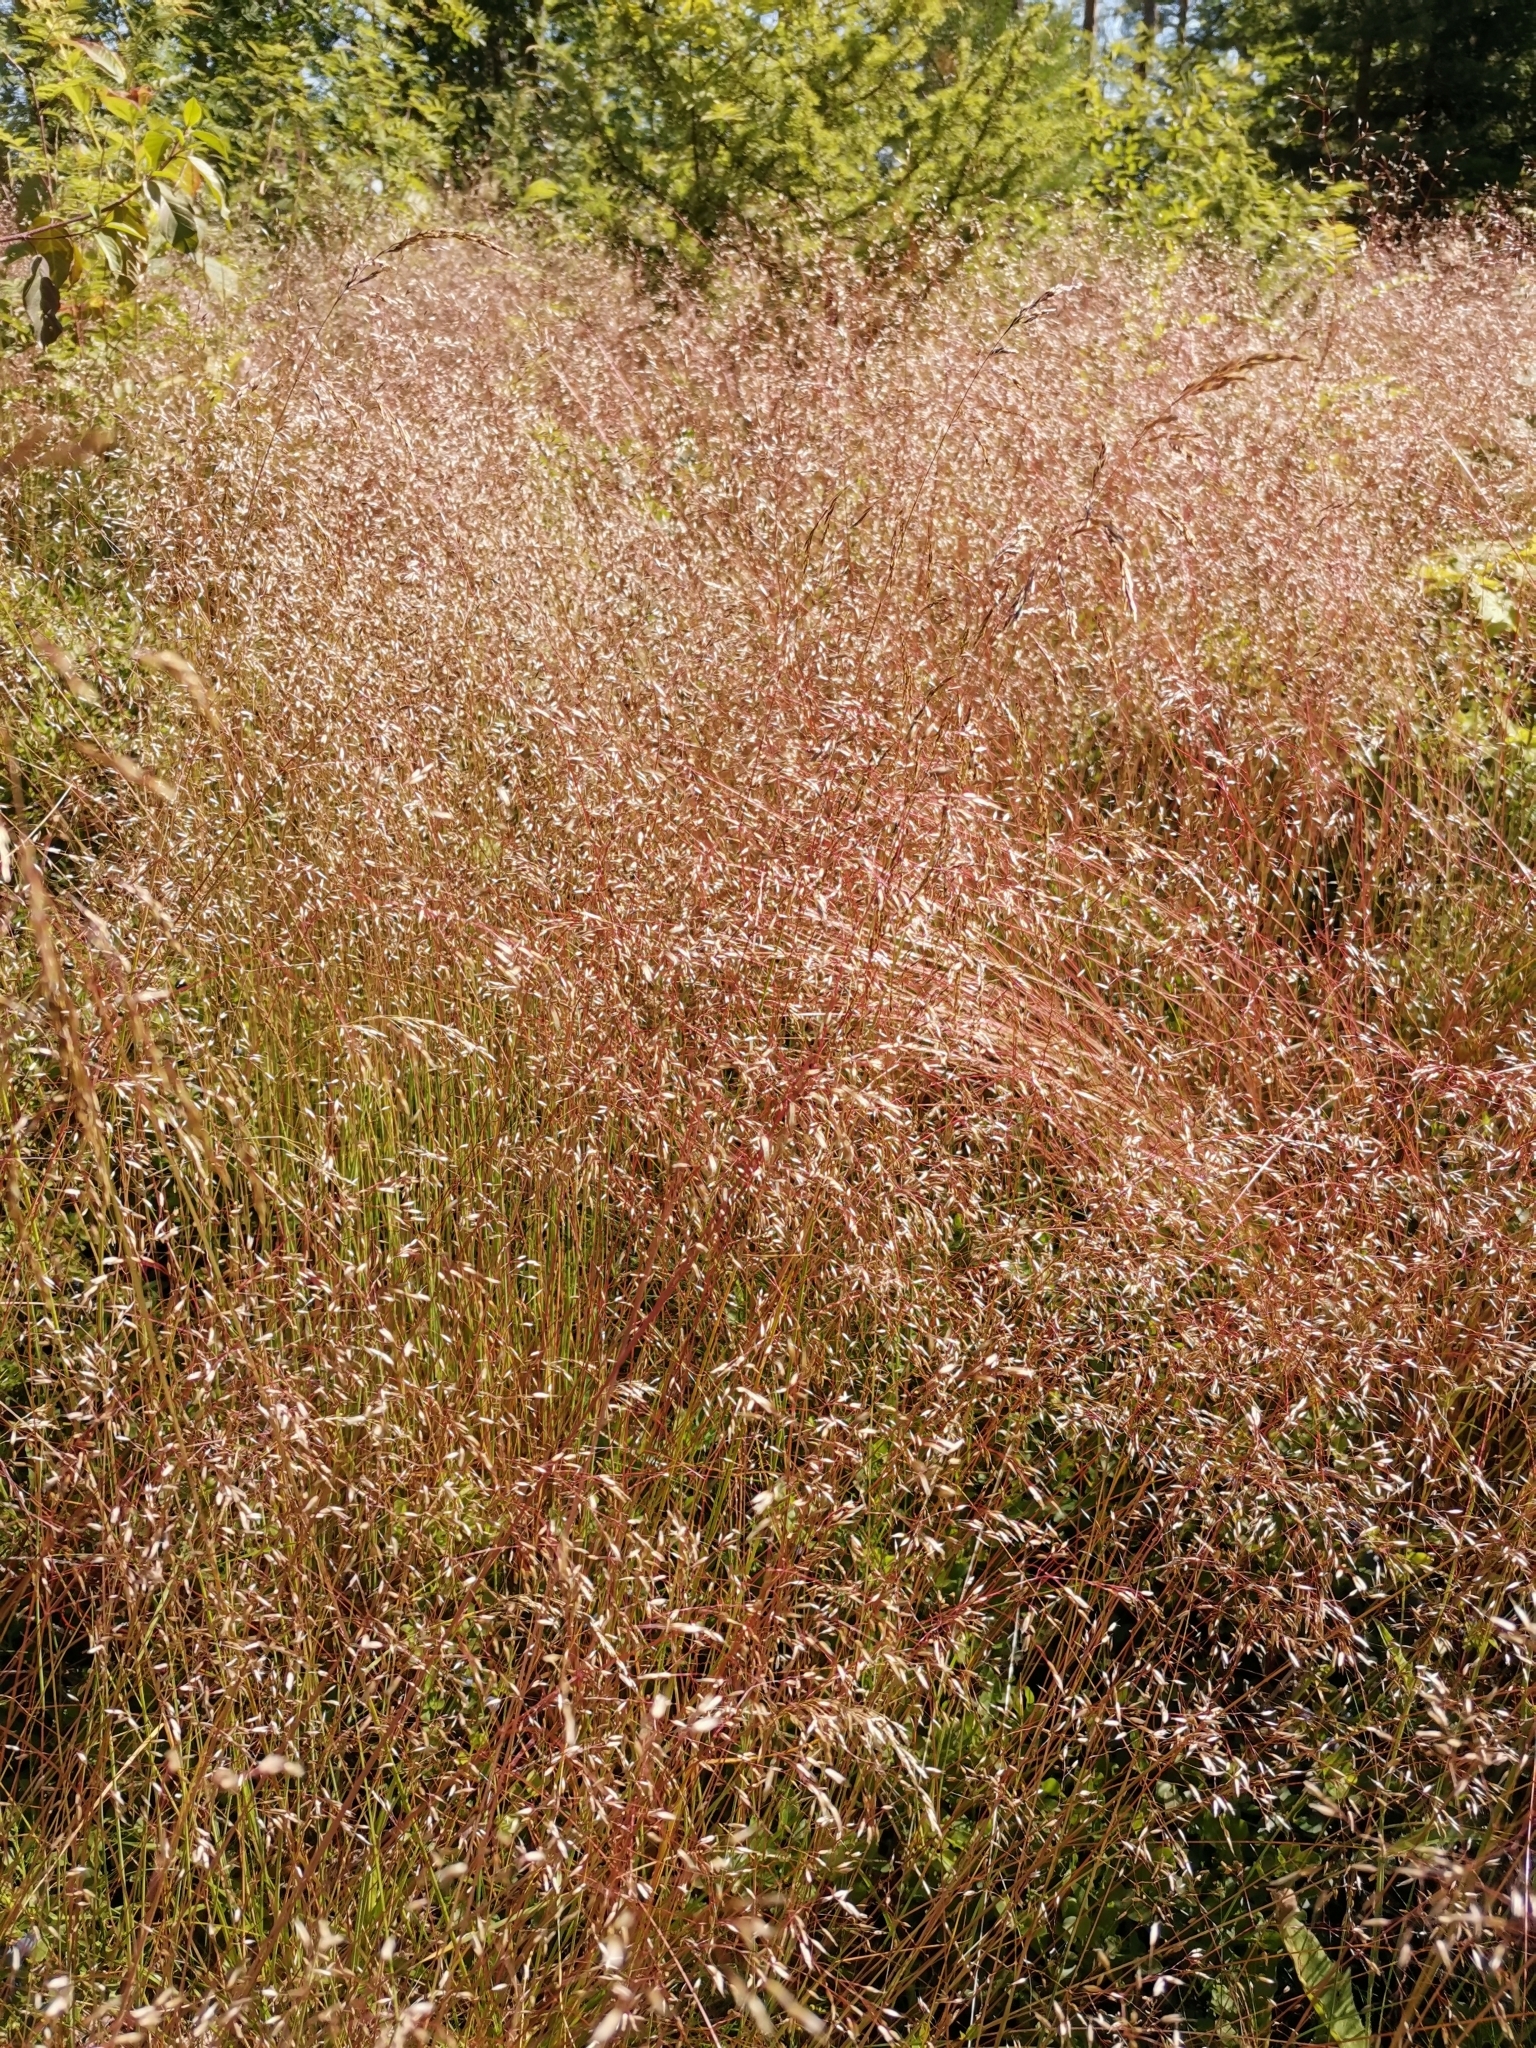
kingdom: Plantae
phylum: Tracheophyta
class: Liliopsida
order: Poales
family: Poaceae
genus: Avenella
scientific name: Avenella flexuosa
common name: Wavy hairgrass
